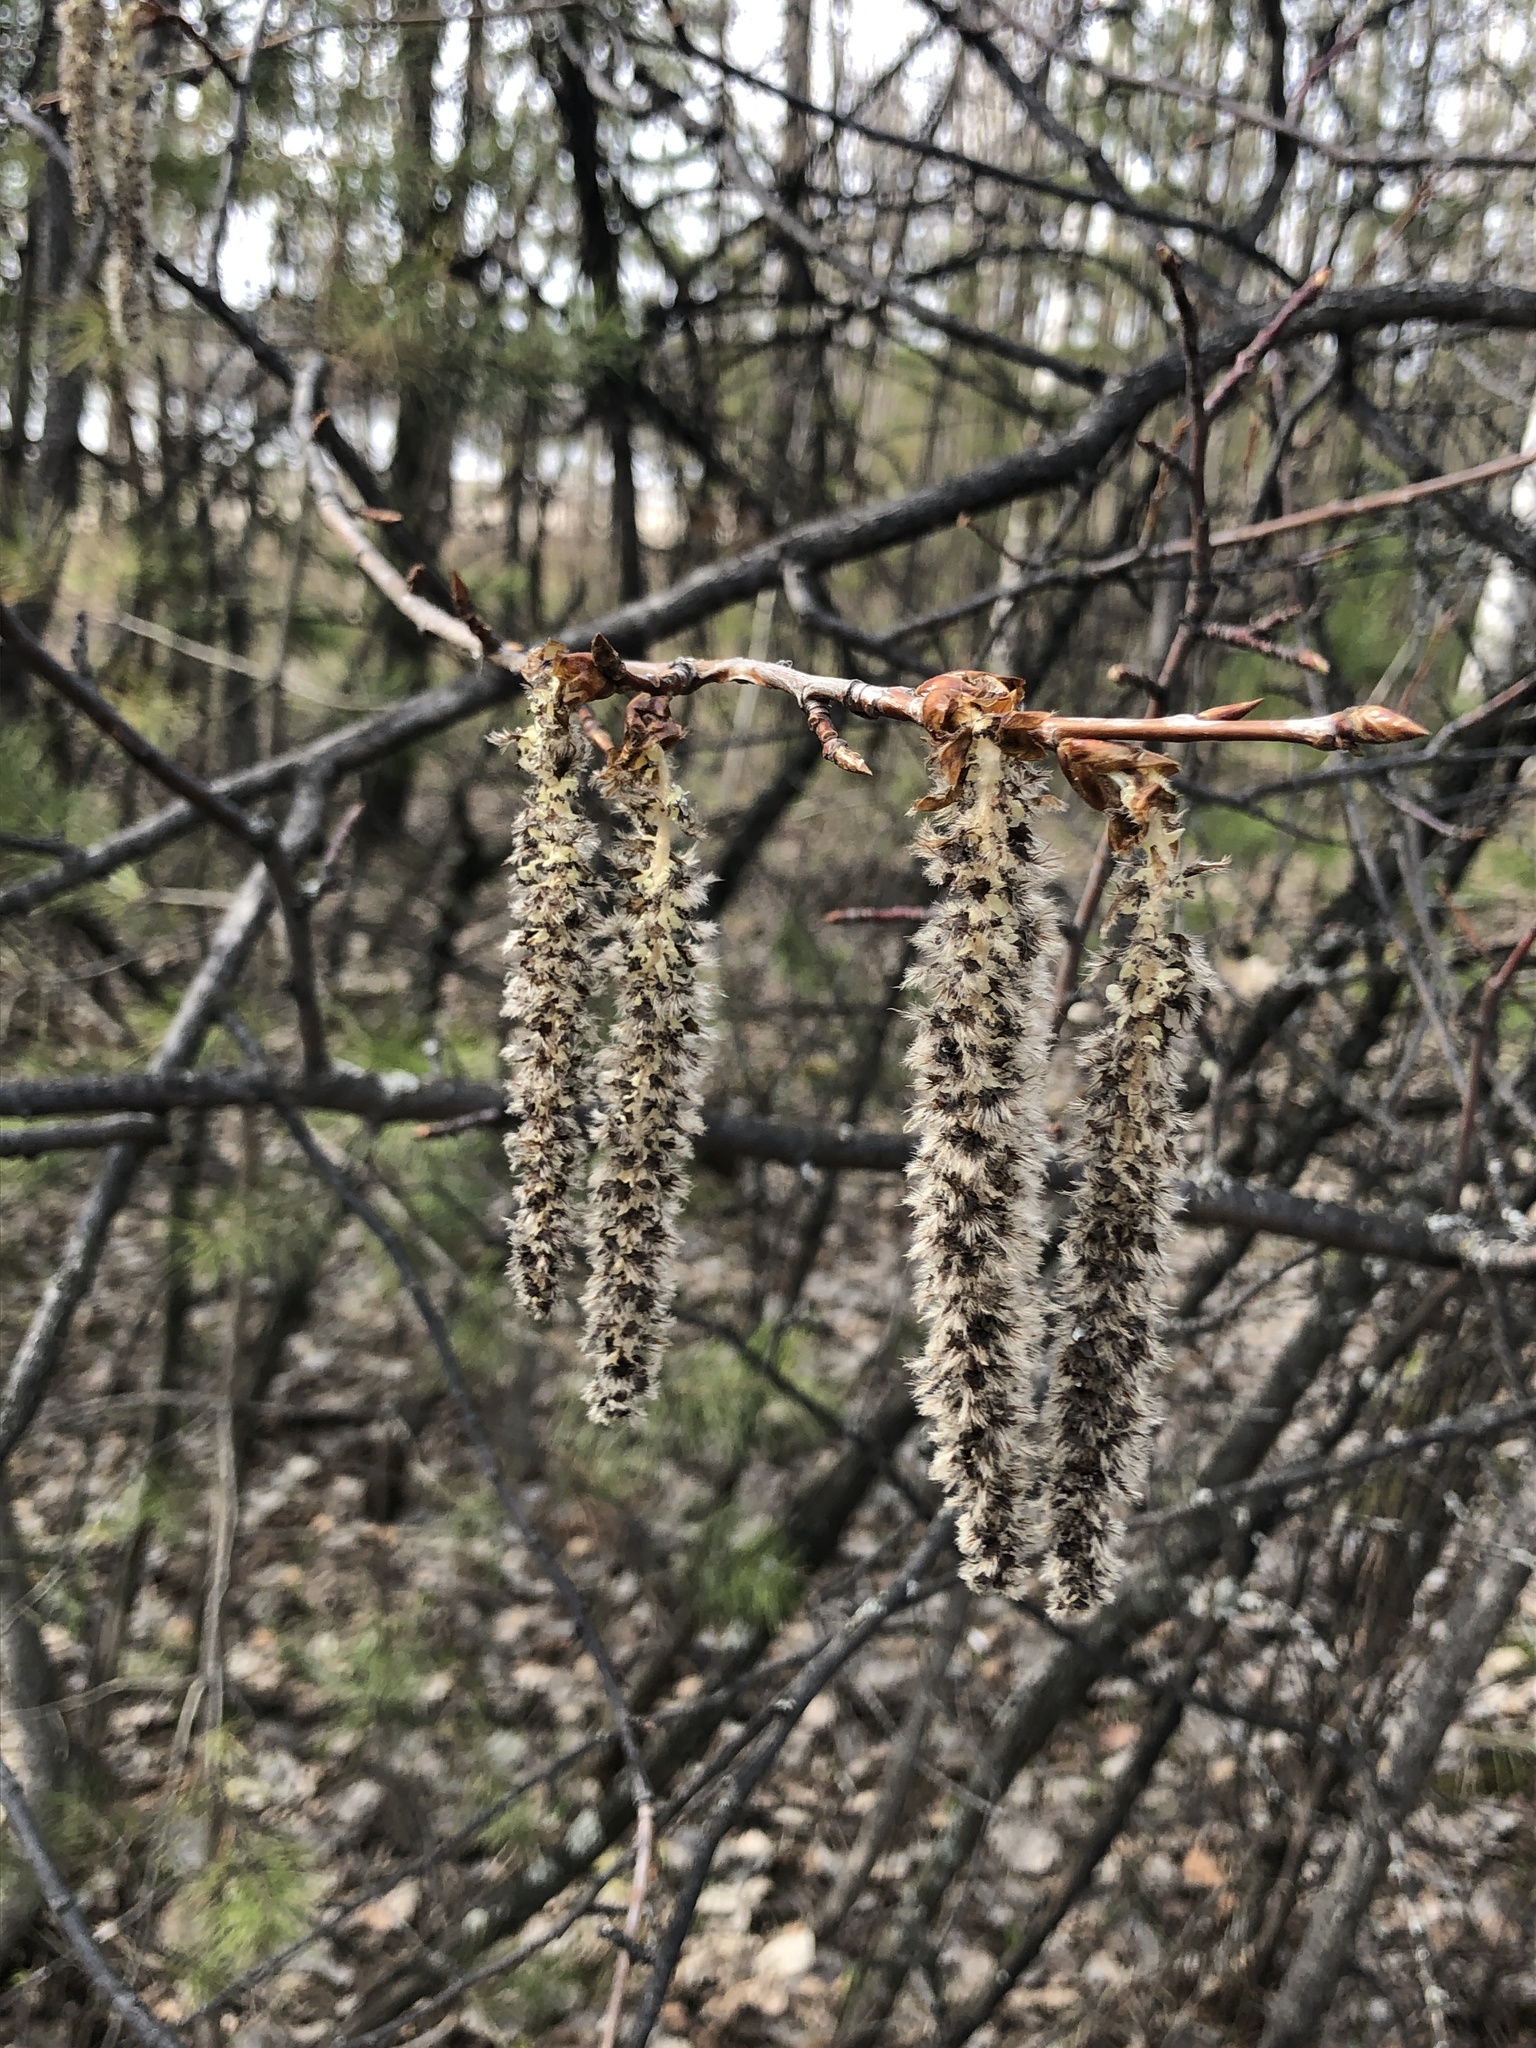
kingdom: Plantae
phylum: Tracheophyta
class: Magnoliopsida
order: Malpighiales
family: Salicaceae
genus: Populus
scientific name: Populus tremula
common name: European aspen
